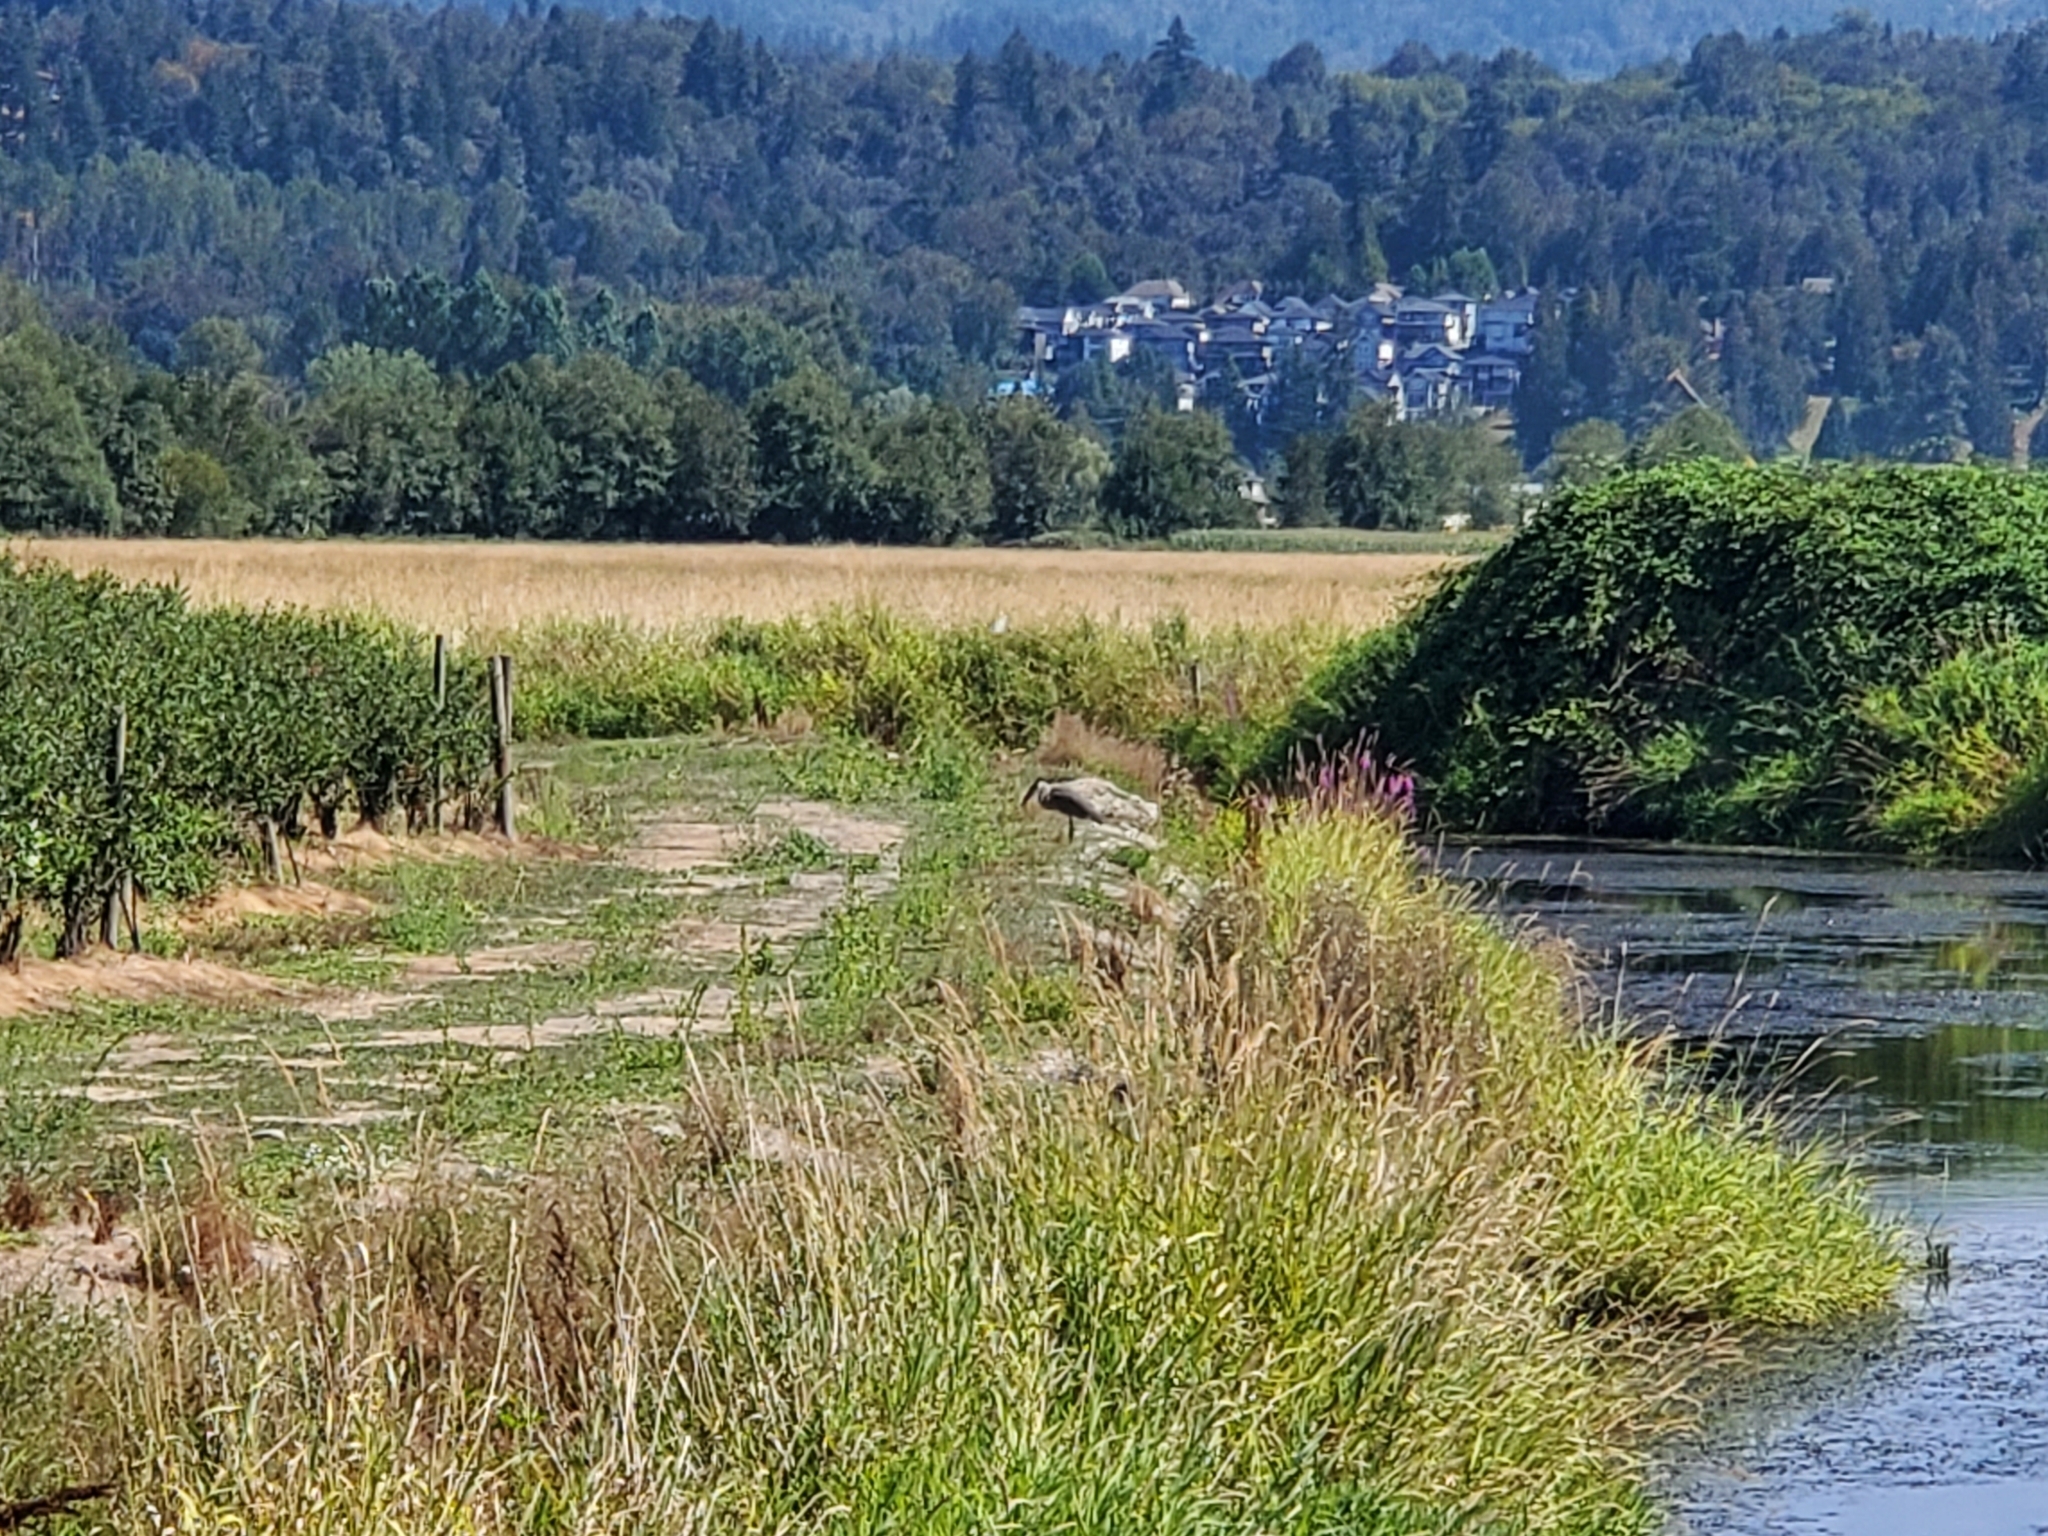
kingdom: Animalia
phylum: Chordata
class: Aves
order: Pelecaniformes
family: Ardeidae
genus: Ardea
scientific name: Ardea herodias
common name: Great blue heron
